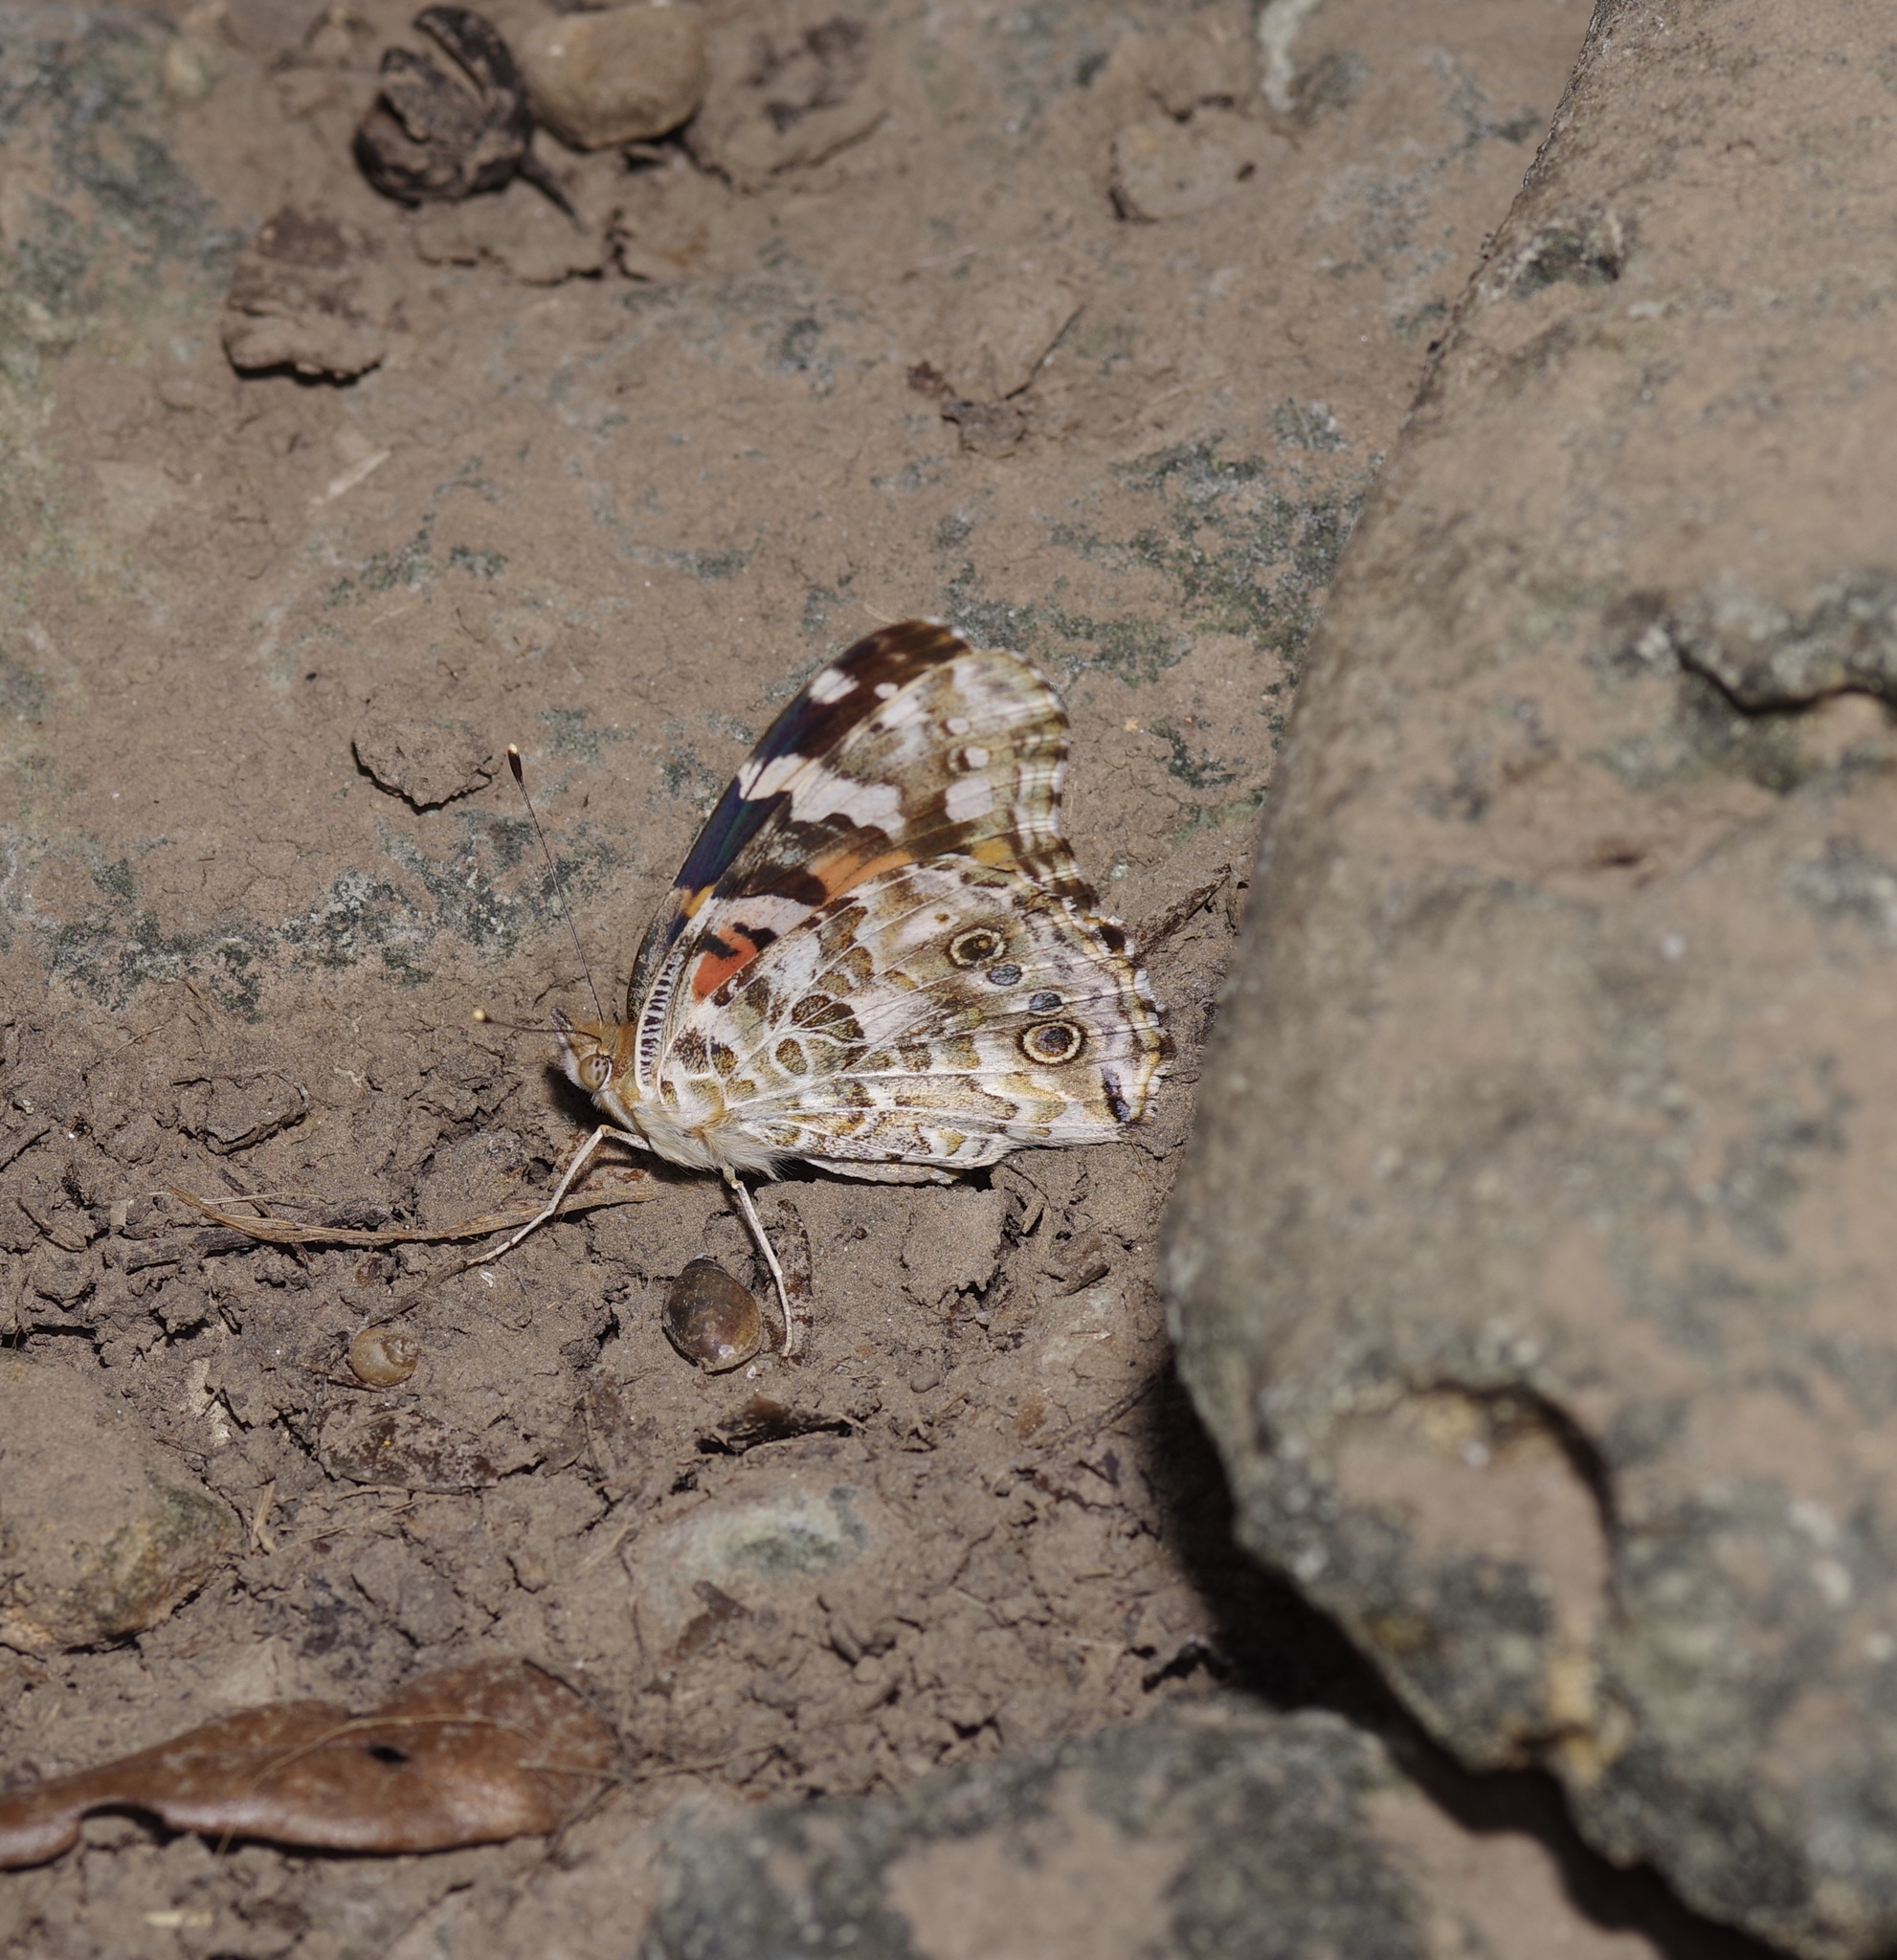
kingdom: Animalia
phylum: Arthropoda
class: Insecta
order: Lepidoptera
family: Nymphalidae
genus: Vanessa
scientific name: Vanessa cardui
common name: Painted lady
